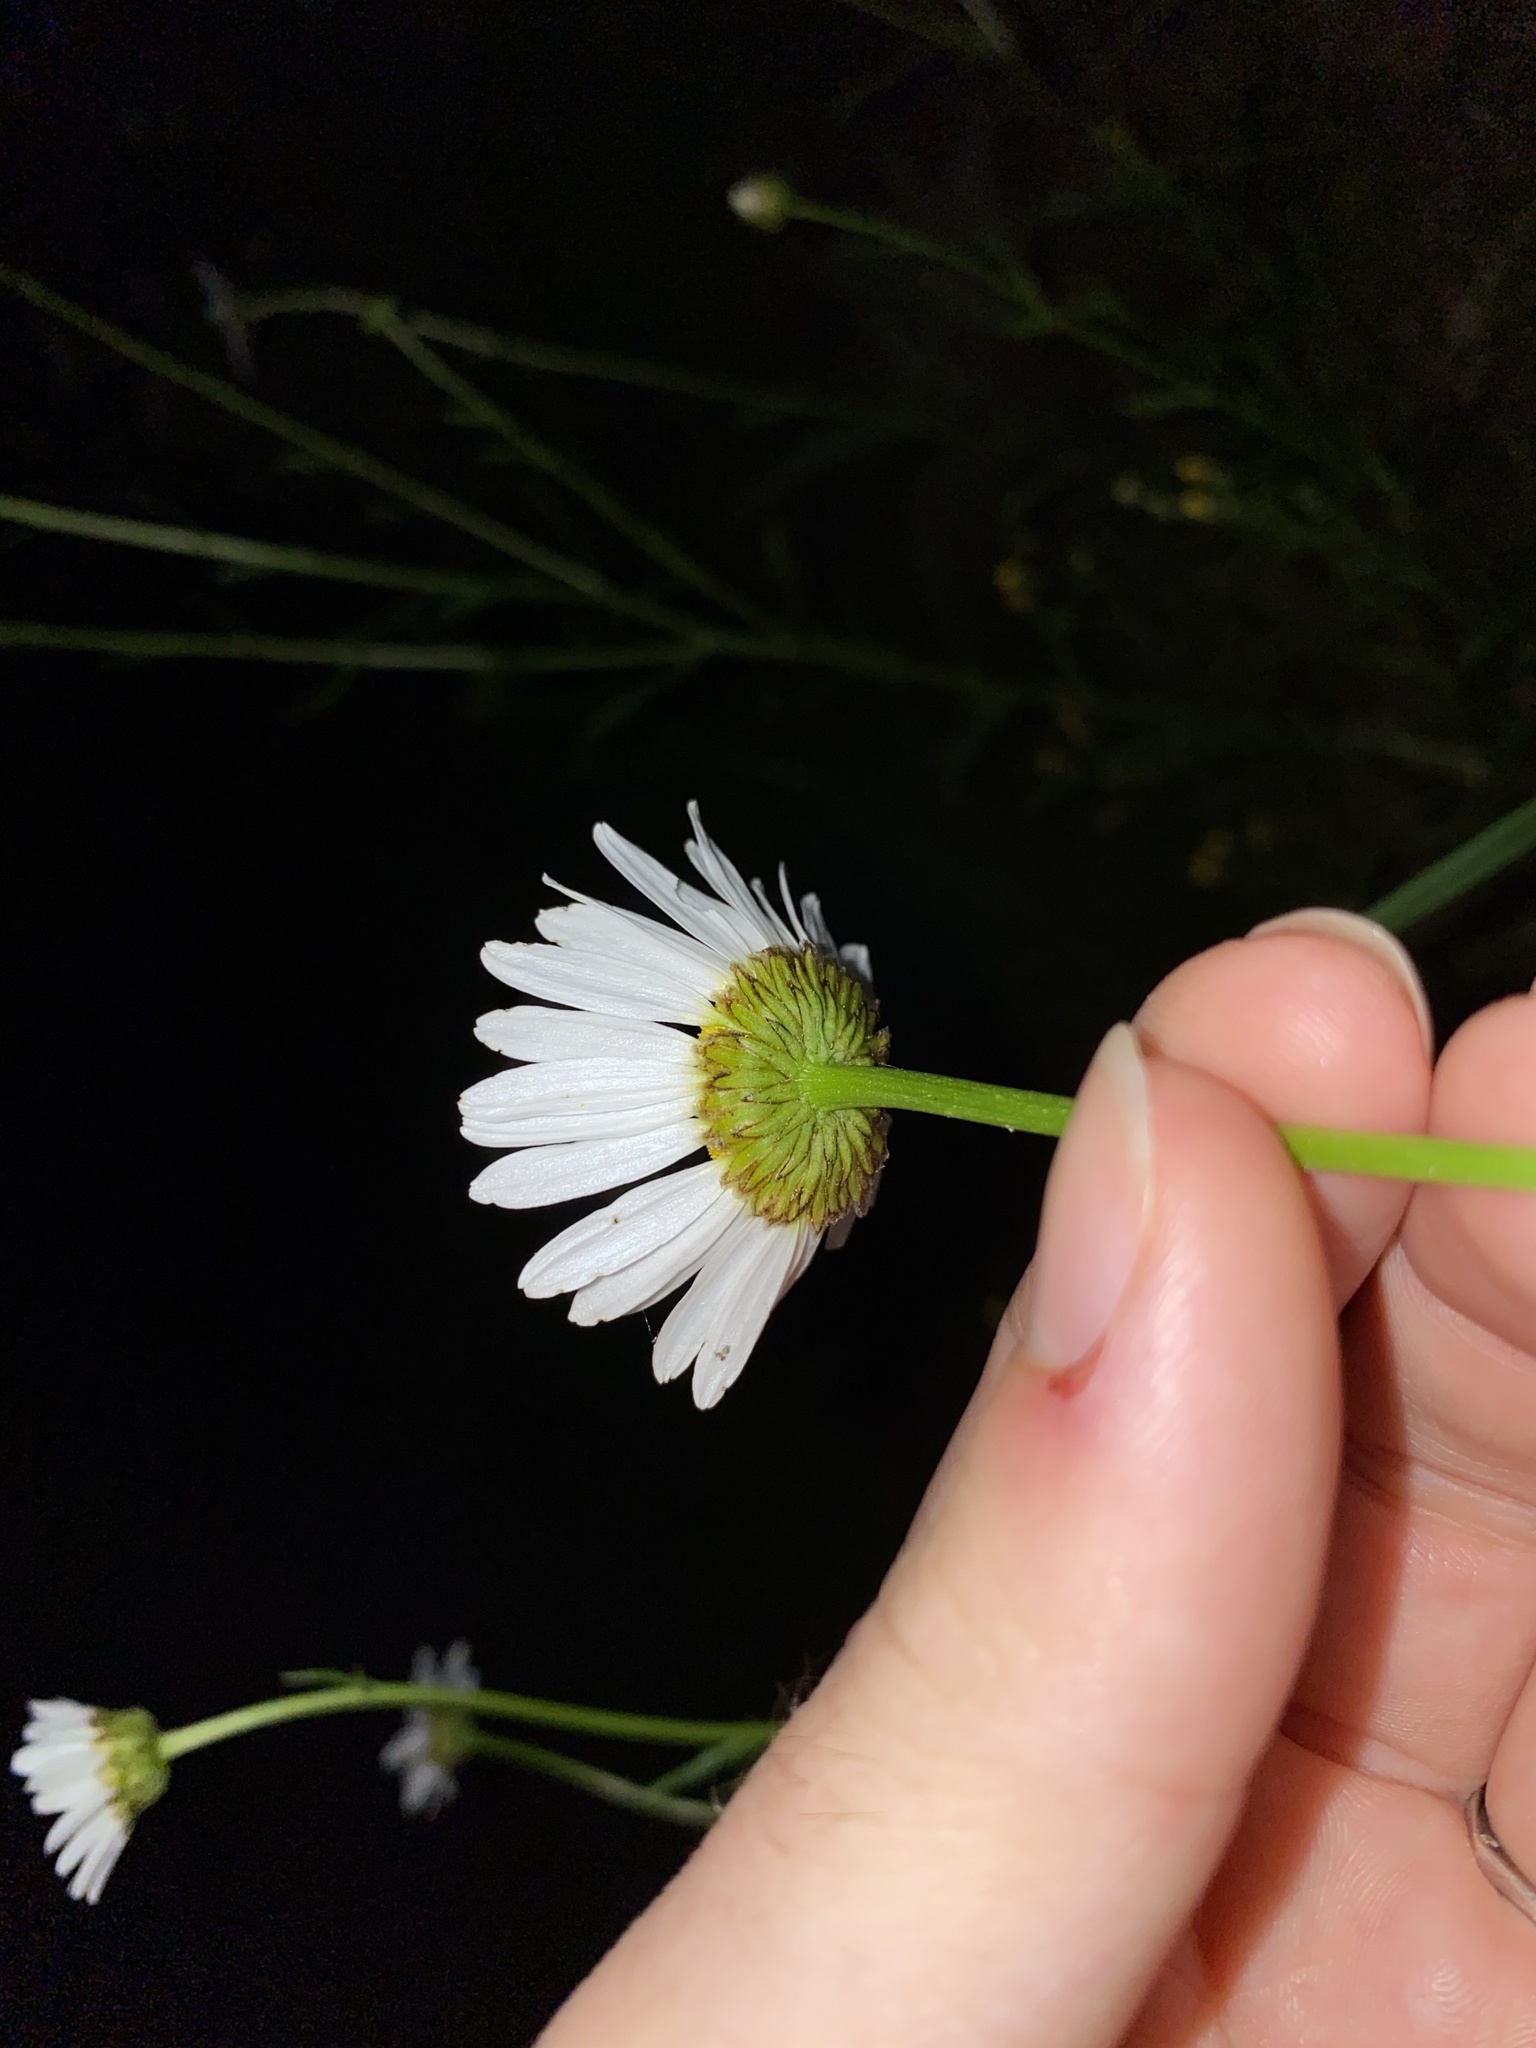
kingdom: Plantae
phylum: Tracheophyta
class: Magnoliopsida
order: Asterales
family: Asteraceae
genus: Leucanthemum
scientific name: Leucanthemum vulgare
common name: Oxeye daisy
